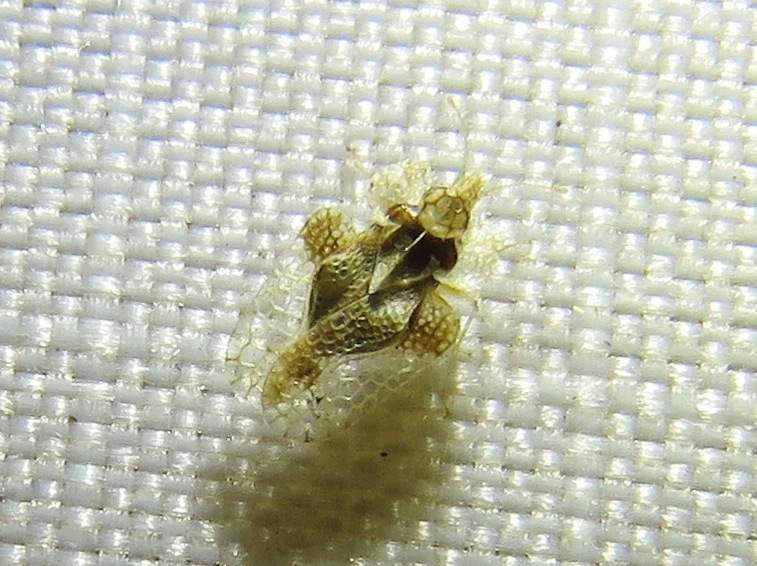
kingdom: Animalia
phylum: Arthropoda
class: Insecta
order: Hemiptera
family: Tingidae
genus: Corythucha
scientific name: Corythucha marmorata
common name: Chrysanthemum lace bug
